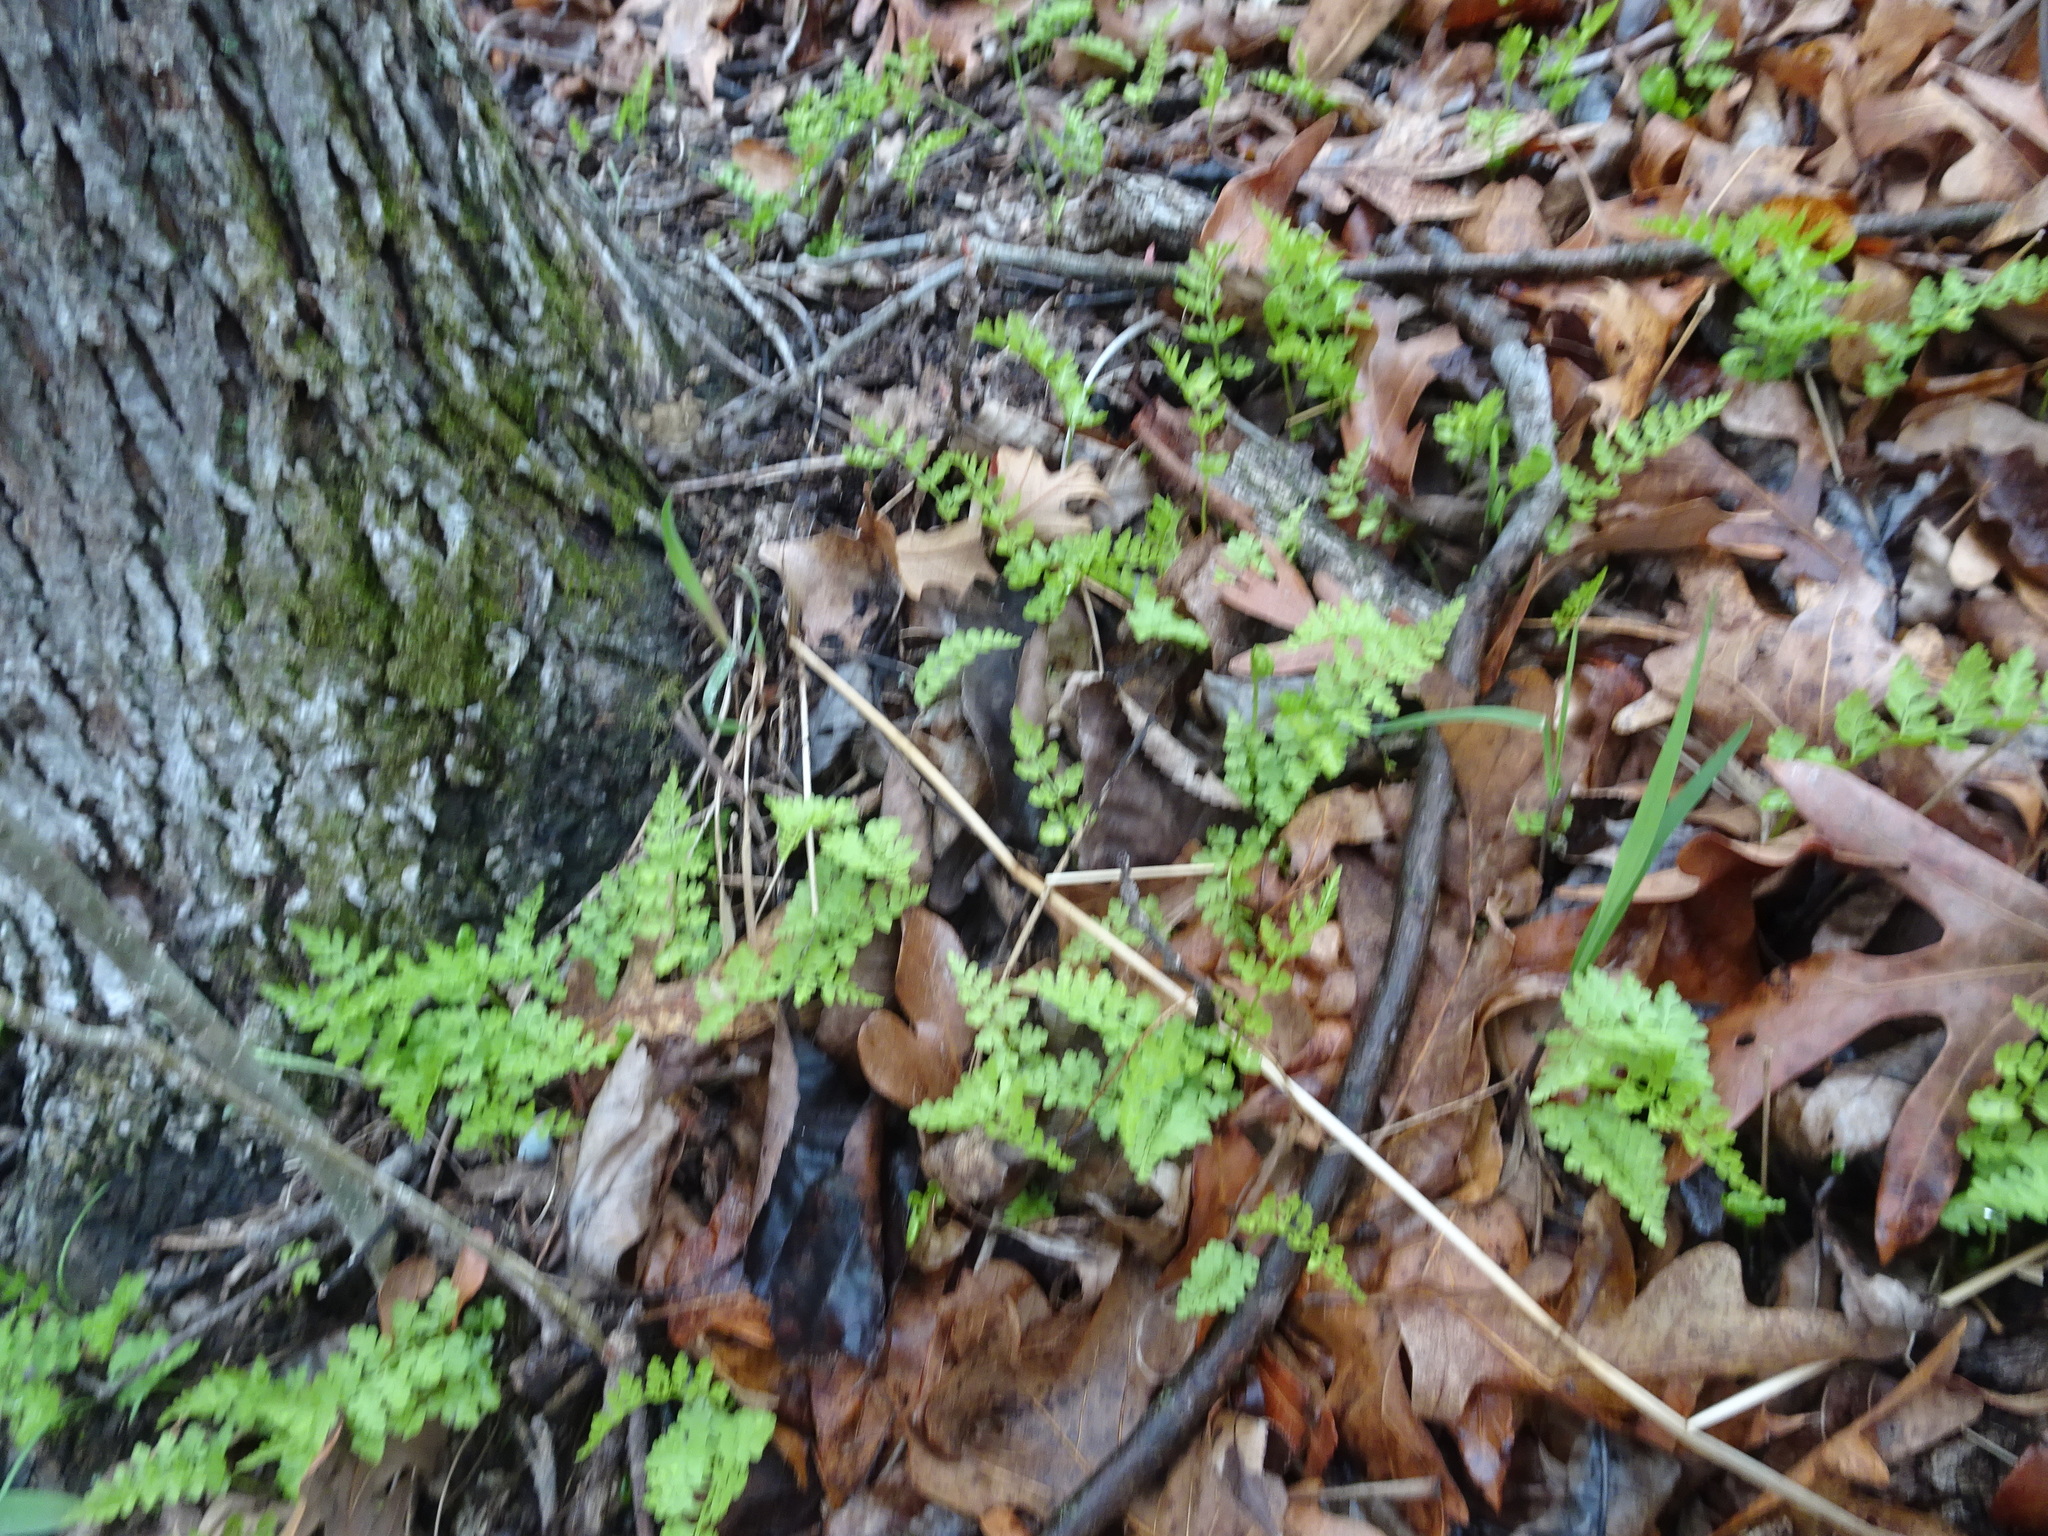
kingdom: Plantae
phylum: Tracheophyta
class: Polypodiopsida
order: Polypodiales
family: Cystopteridaceae
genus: Cystopteris
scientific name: Cystopteris protrusa
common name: Lowland brittle fern
